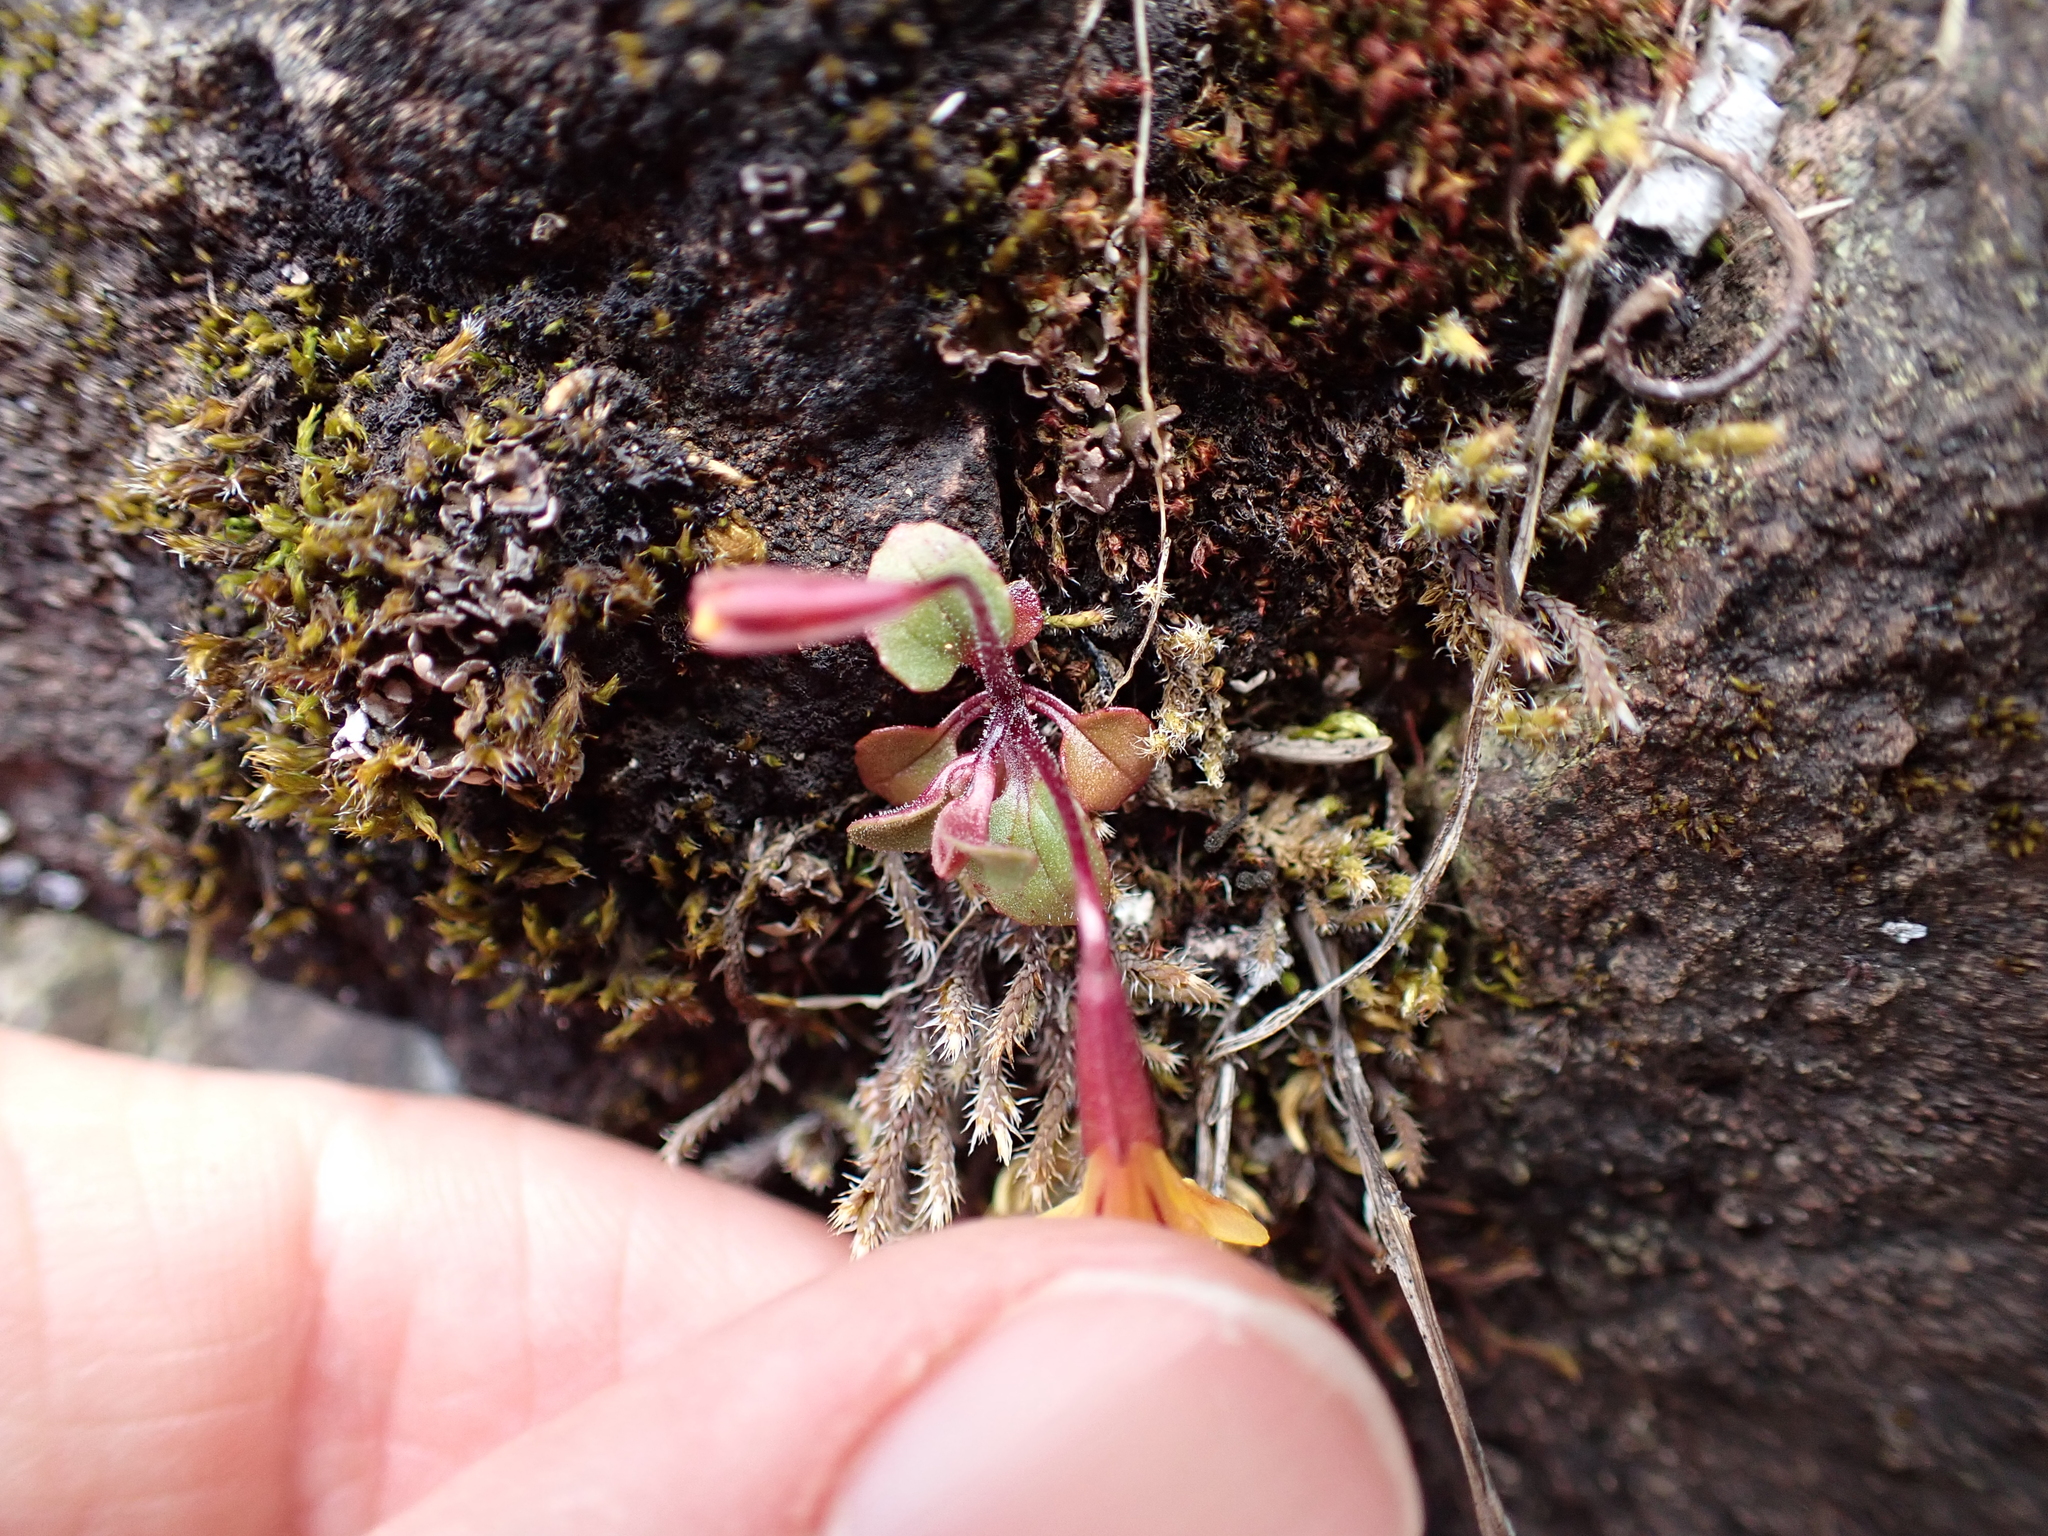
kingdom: Plantae
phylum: Tracheophyta
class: Magnoliopsida
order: Lamiales
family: Phrymaceae
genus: Erythranthe
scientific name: Erythranthe alsinoides
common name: Chickweed monkeyflower
